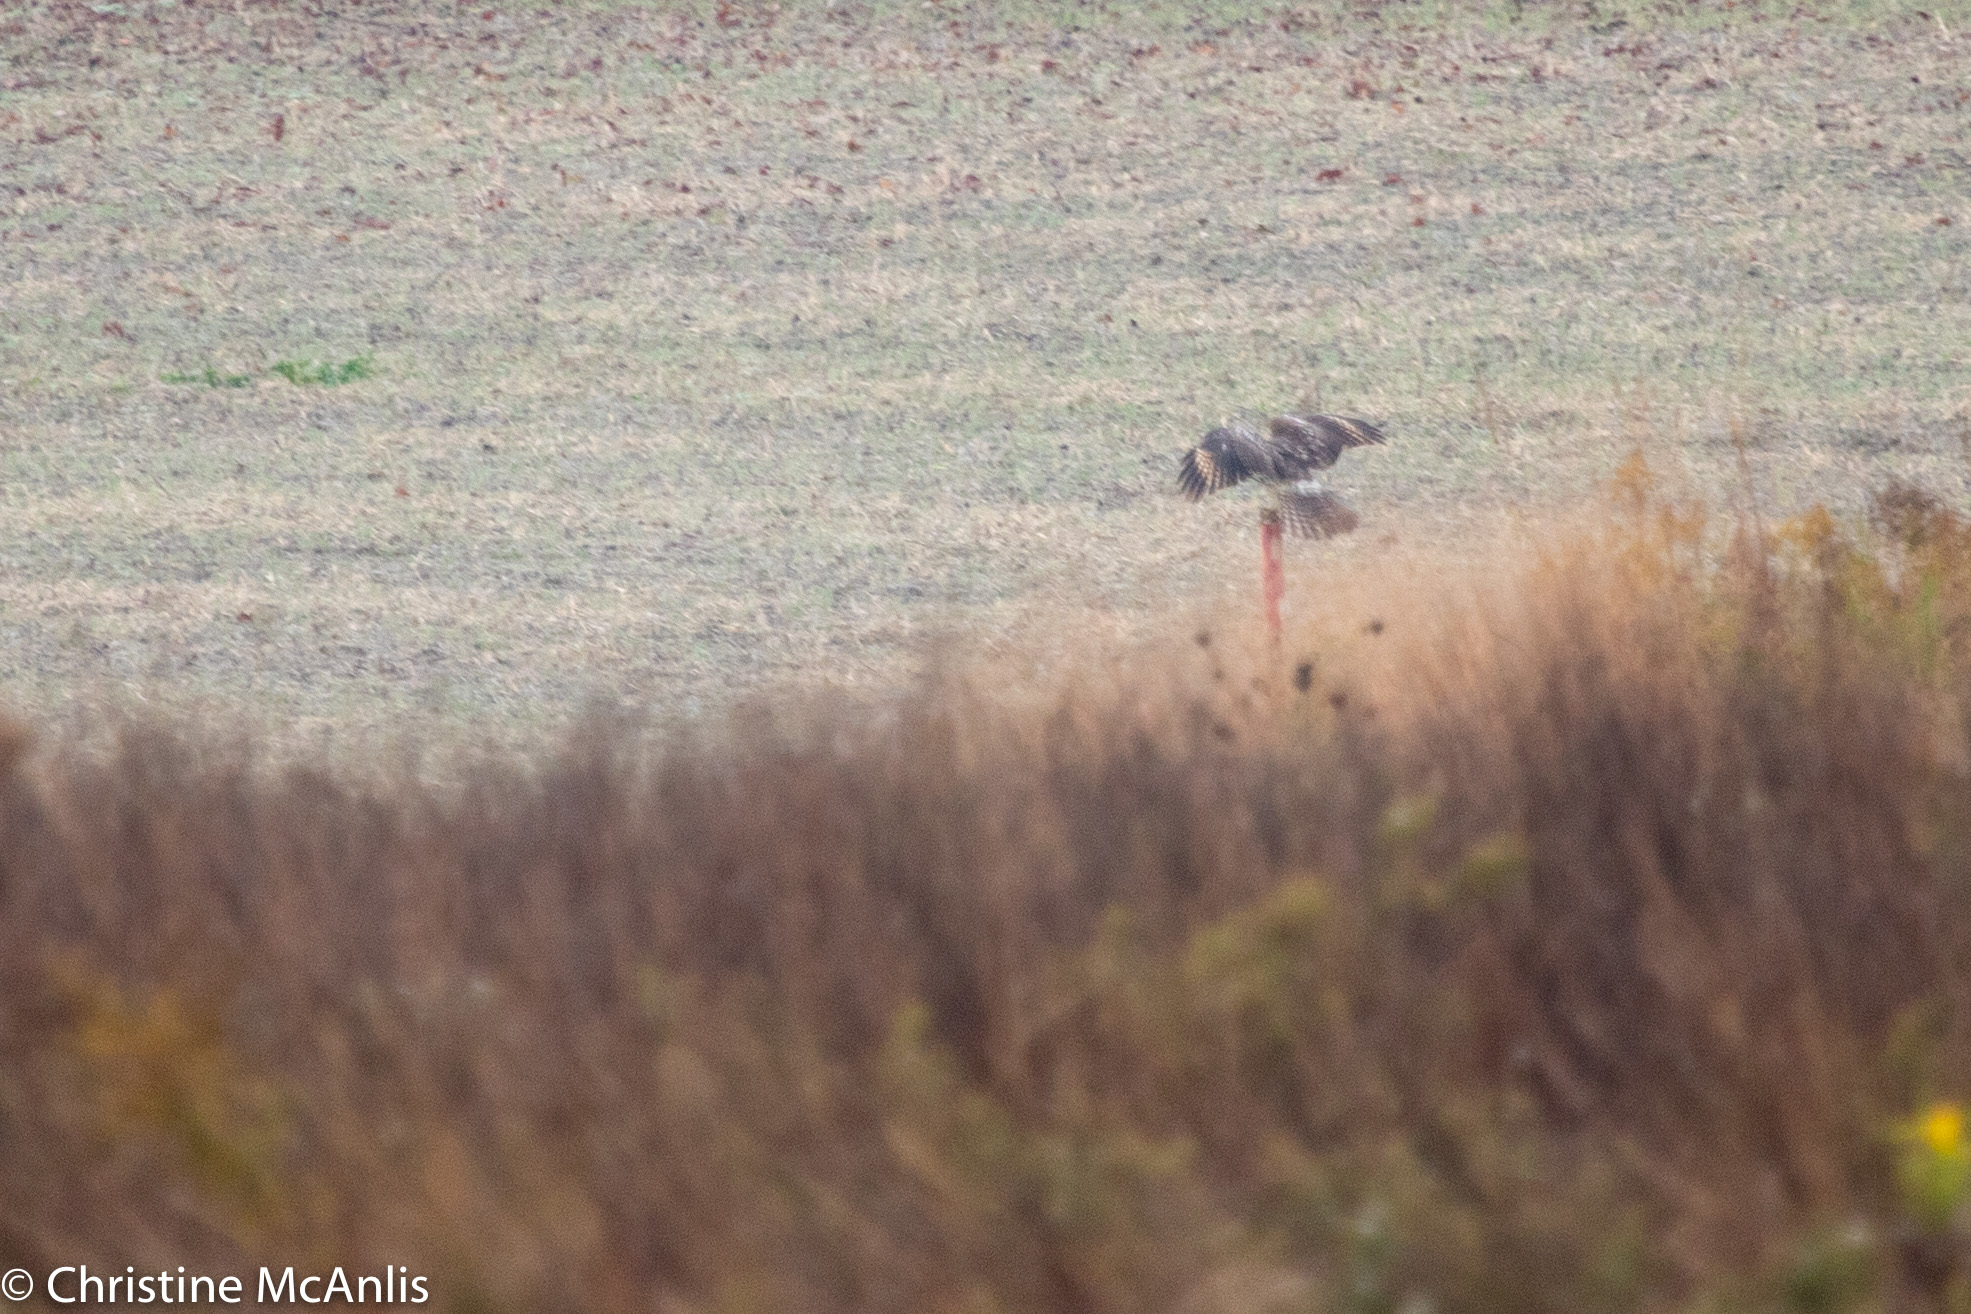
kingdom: Animalia
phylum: Chordata
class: Aves
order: Accipitriformes
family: Accipitridae
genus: Buteo
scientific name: Buteo lineatus
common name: Red-shouldered hawk
